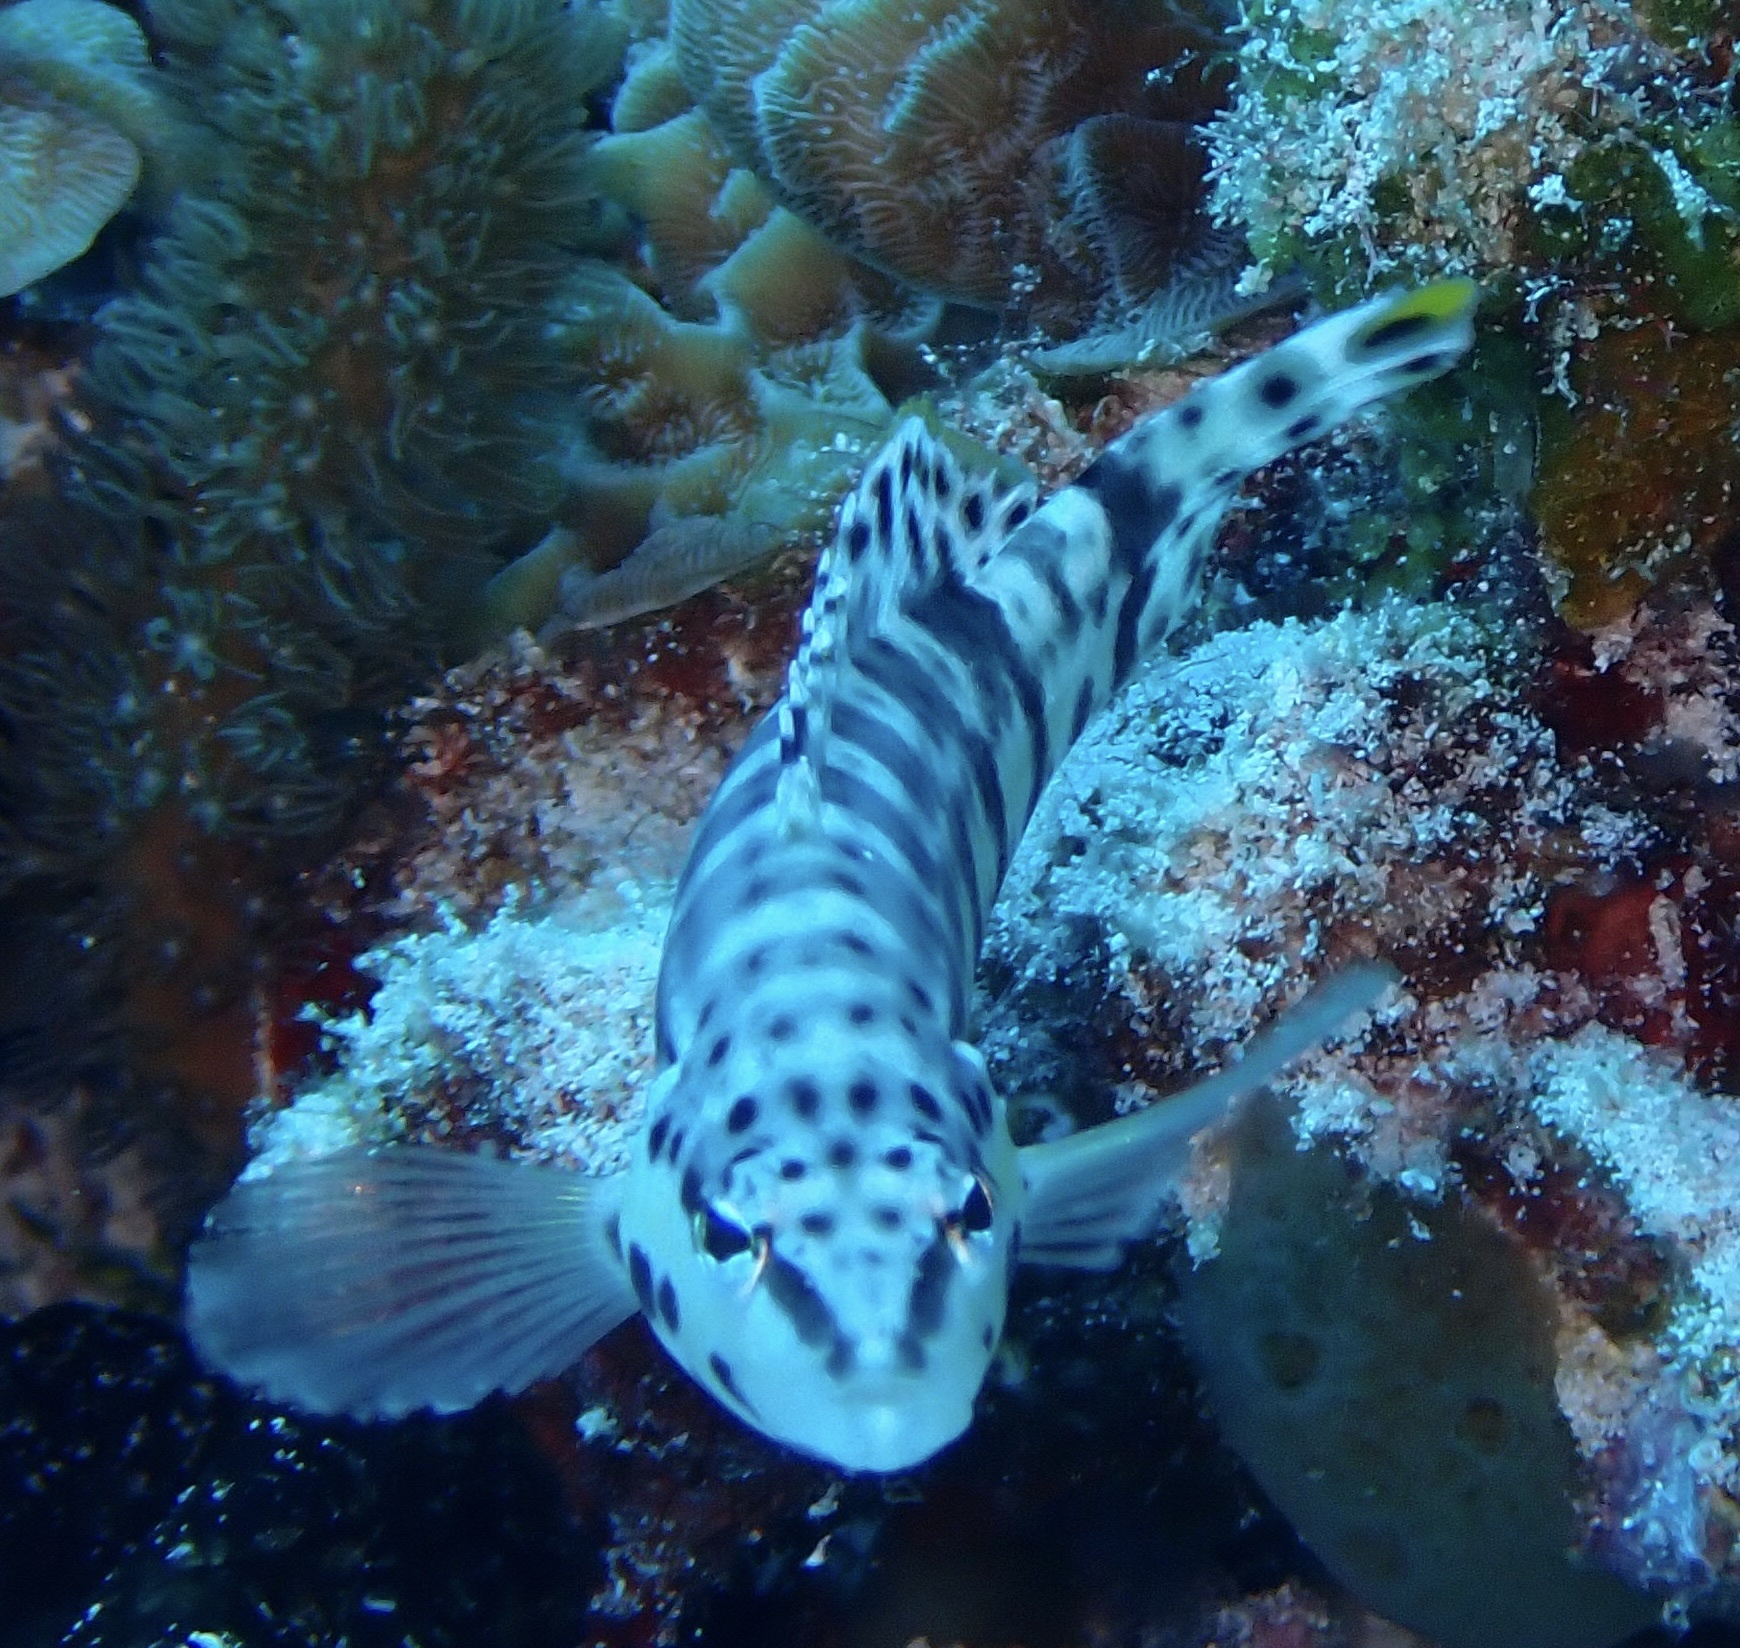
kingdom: Animalia
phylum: Chordata
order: Perciformes
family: Serranidae
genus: Serranus
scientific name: Serranus tigrinus
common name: Harlequin bass
